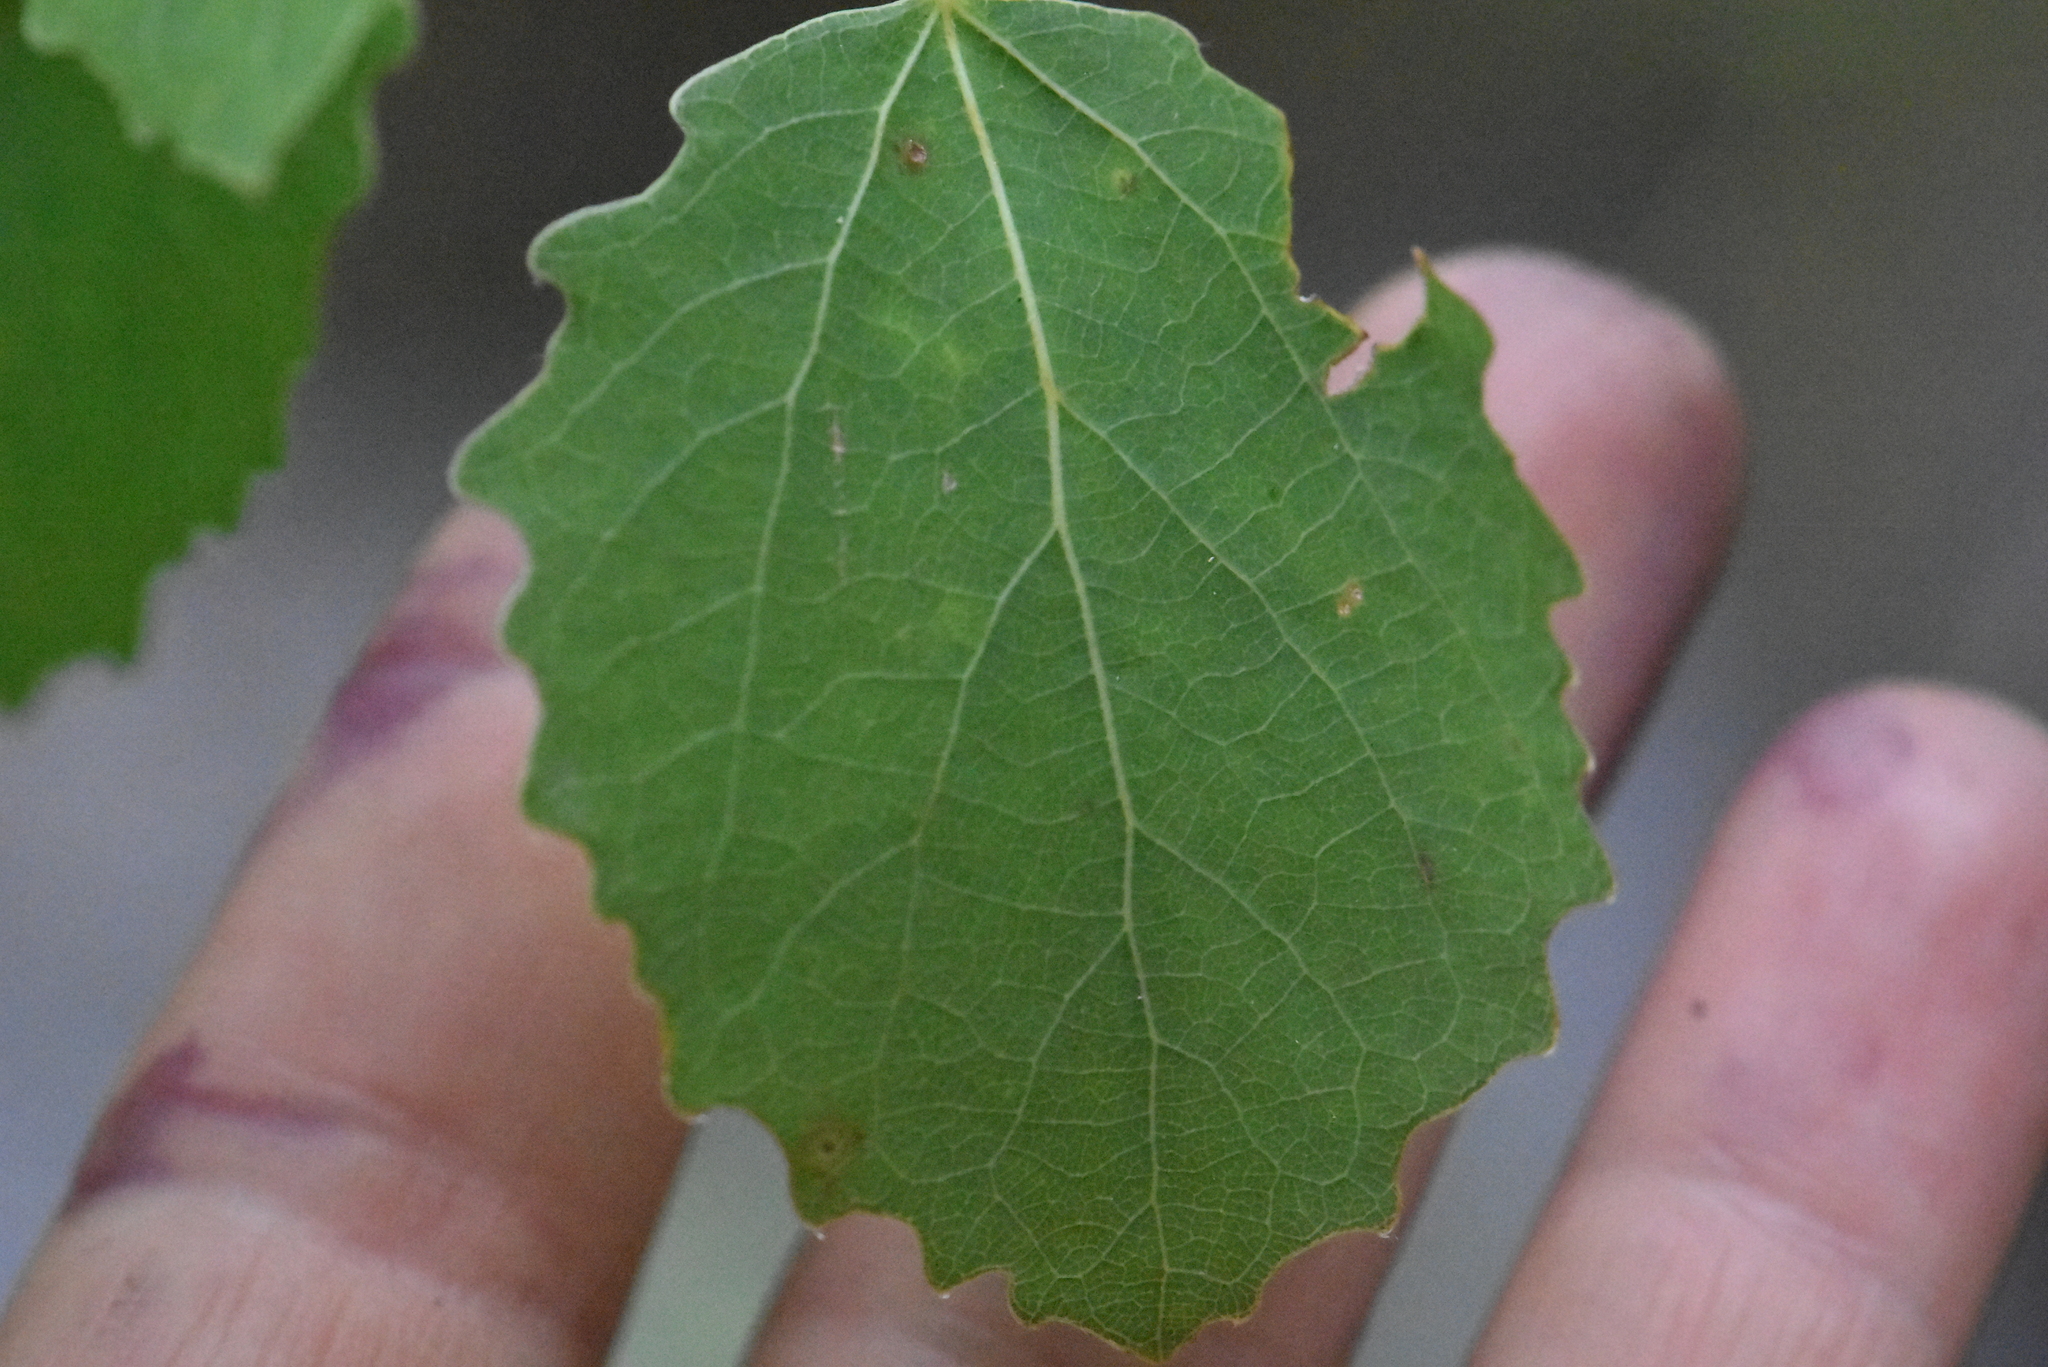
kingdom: Plantae
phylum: Tracheophyta
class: Magnoliopsida
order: Malpighiales
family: Salicaceae
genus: Populus
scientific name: Populus tremula
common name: European aspen
